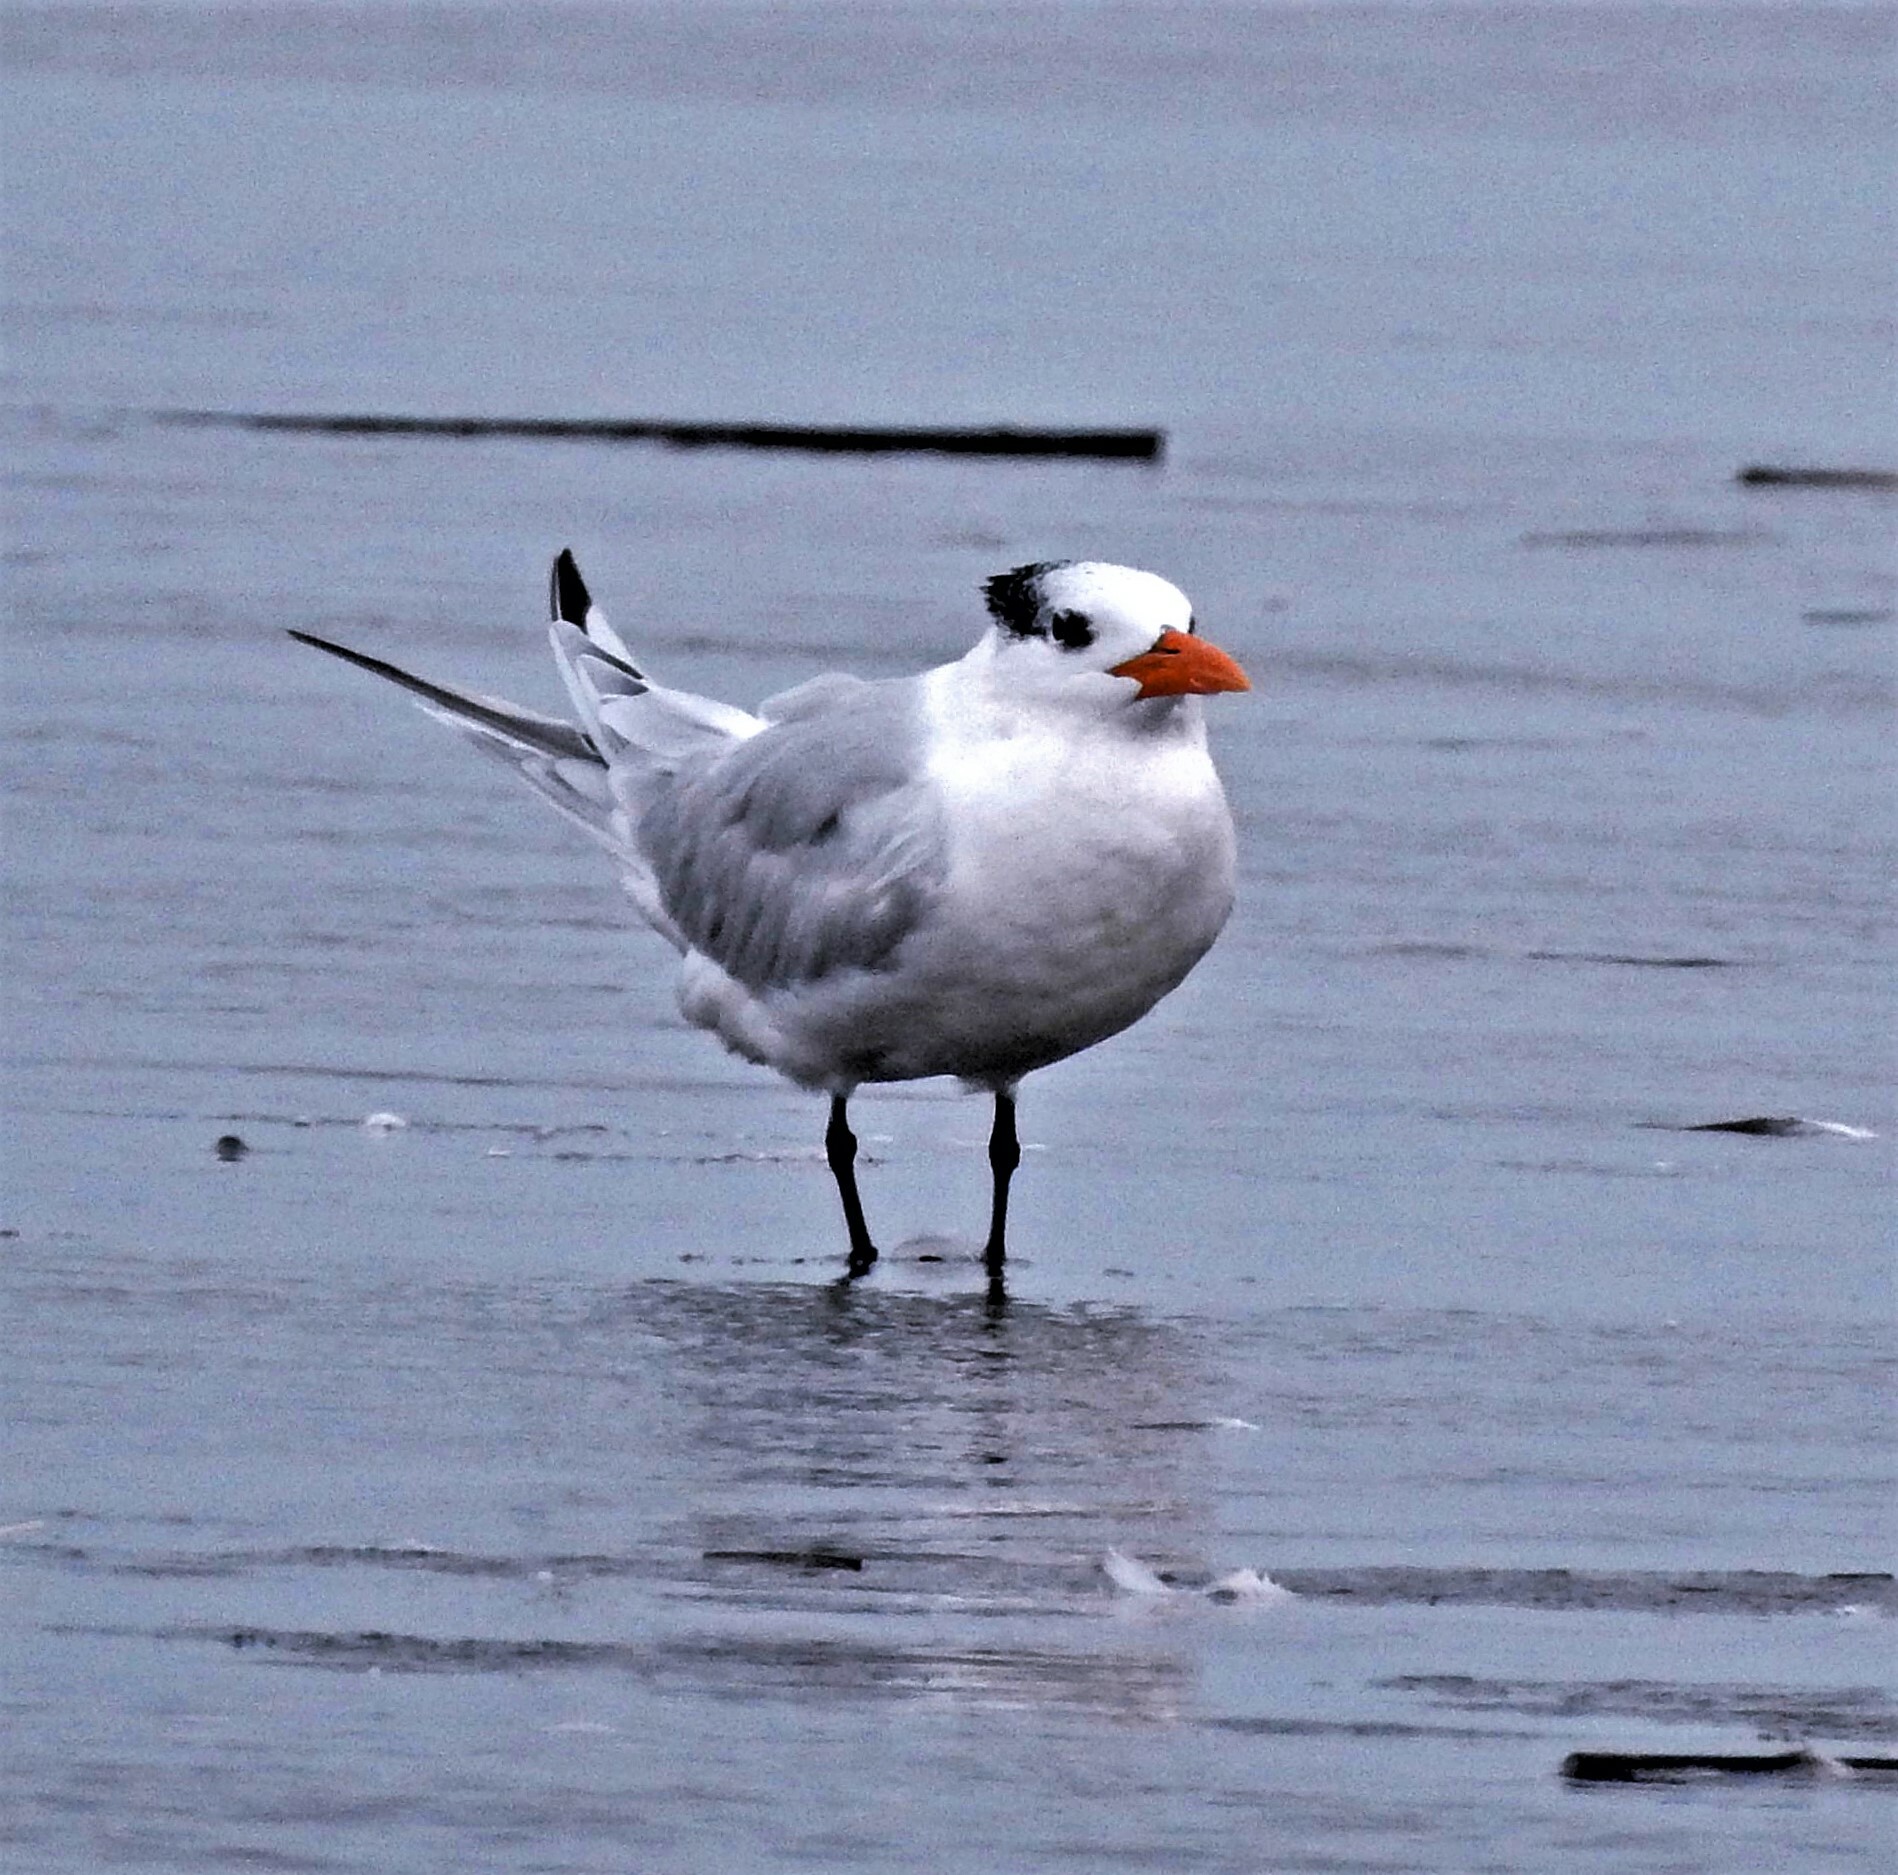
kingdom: Animalia
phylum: Chordata
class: Aves
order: Charadriiformes
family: Laridae
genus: Thalasseus
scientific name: Thalasseus maximus
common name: Royal tern
